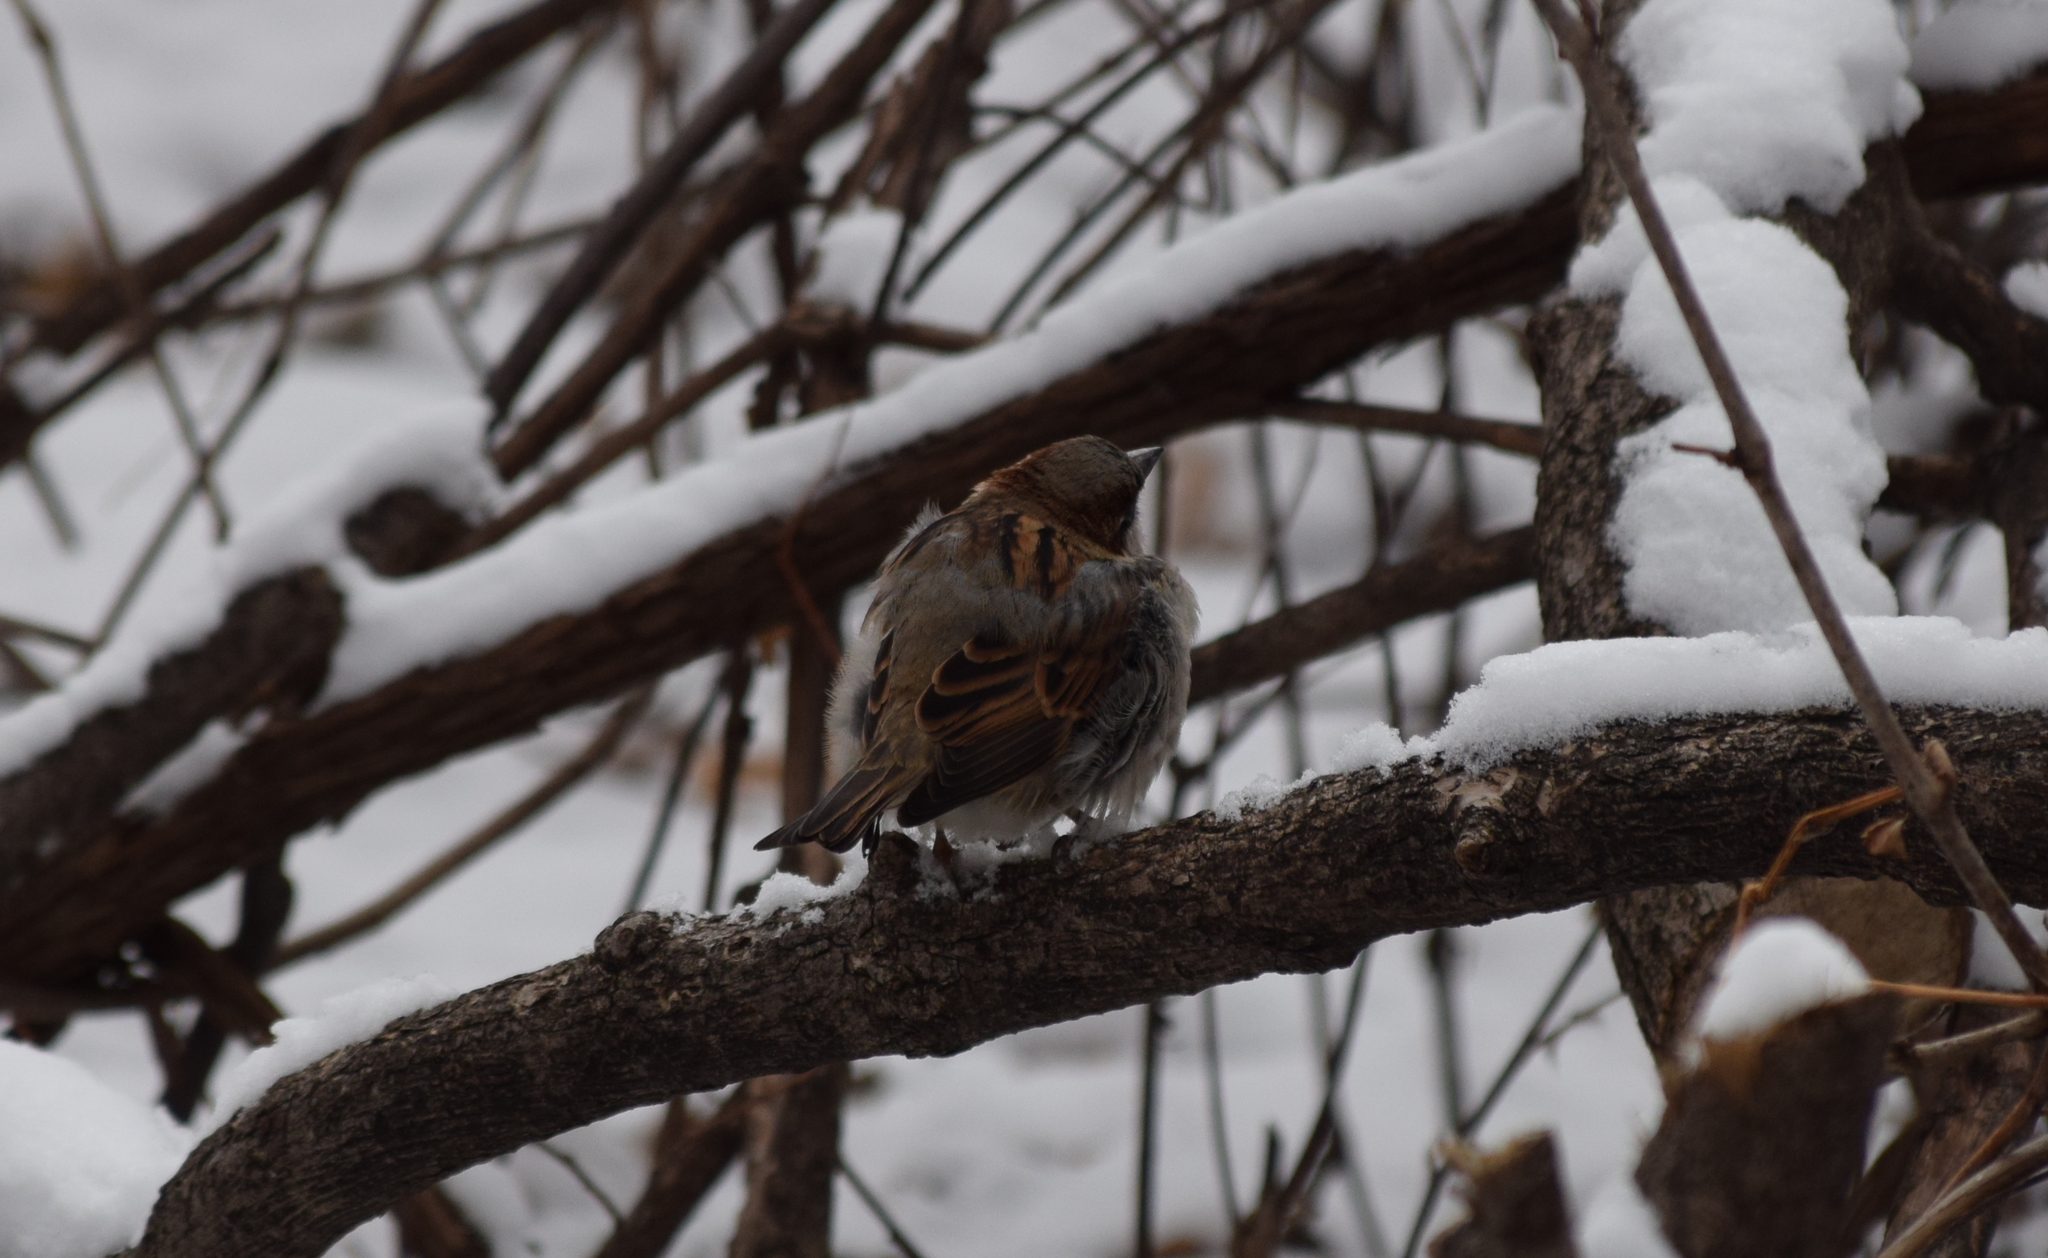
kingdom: Animalia
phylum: Chordata
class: Aves
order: Passeriformes
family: Passeridae
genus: Passer
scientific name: Passer domesticus
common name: House sparrow
